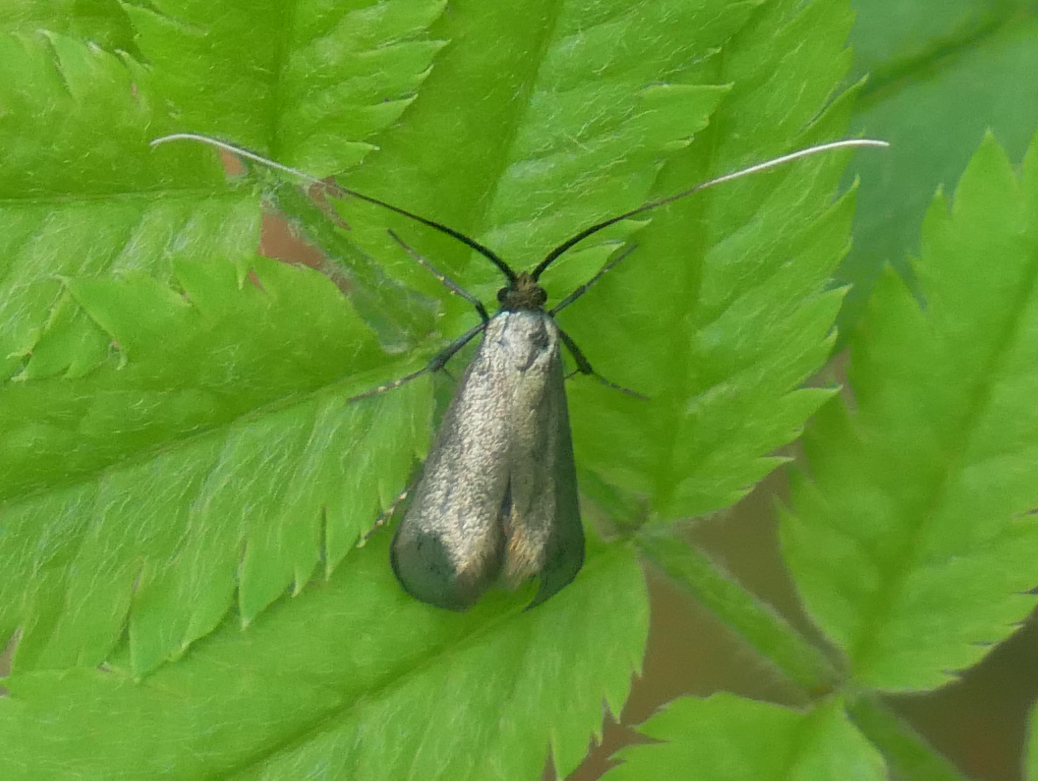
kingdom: Animalia
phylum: Arthropoda
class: Insecta
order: Lepidoptera
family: Adelidae
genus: Adela
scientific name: Adela viridella
